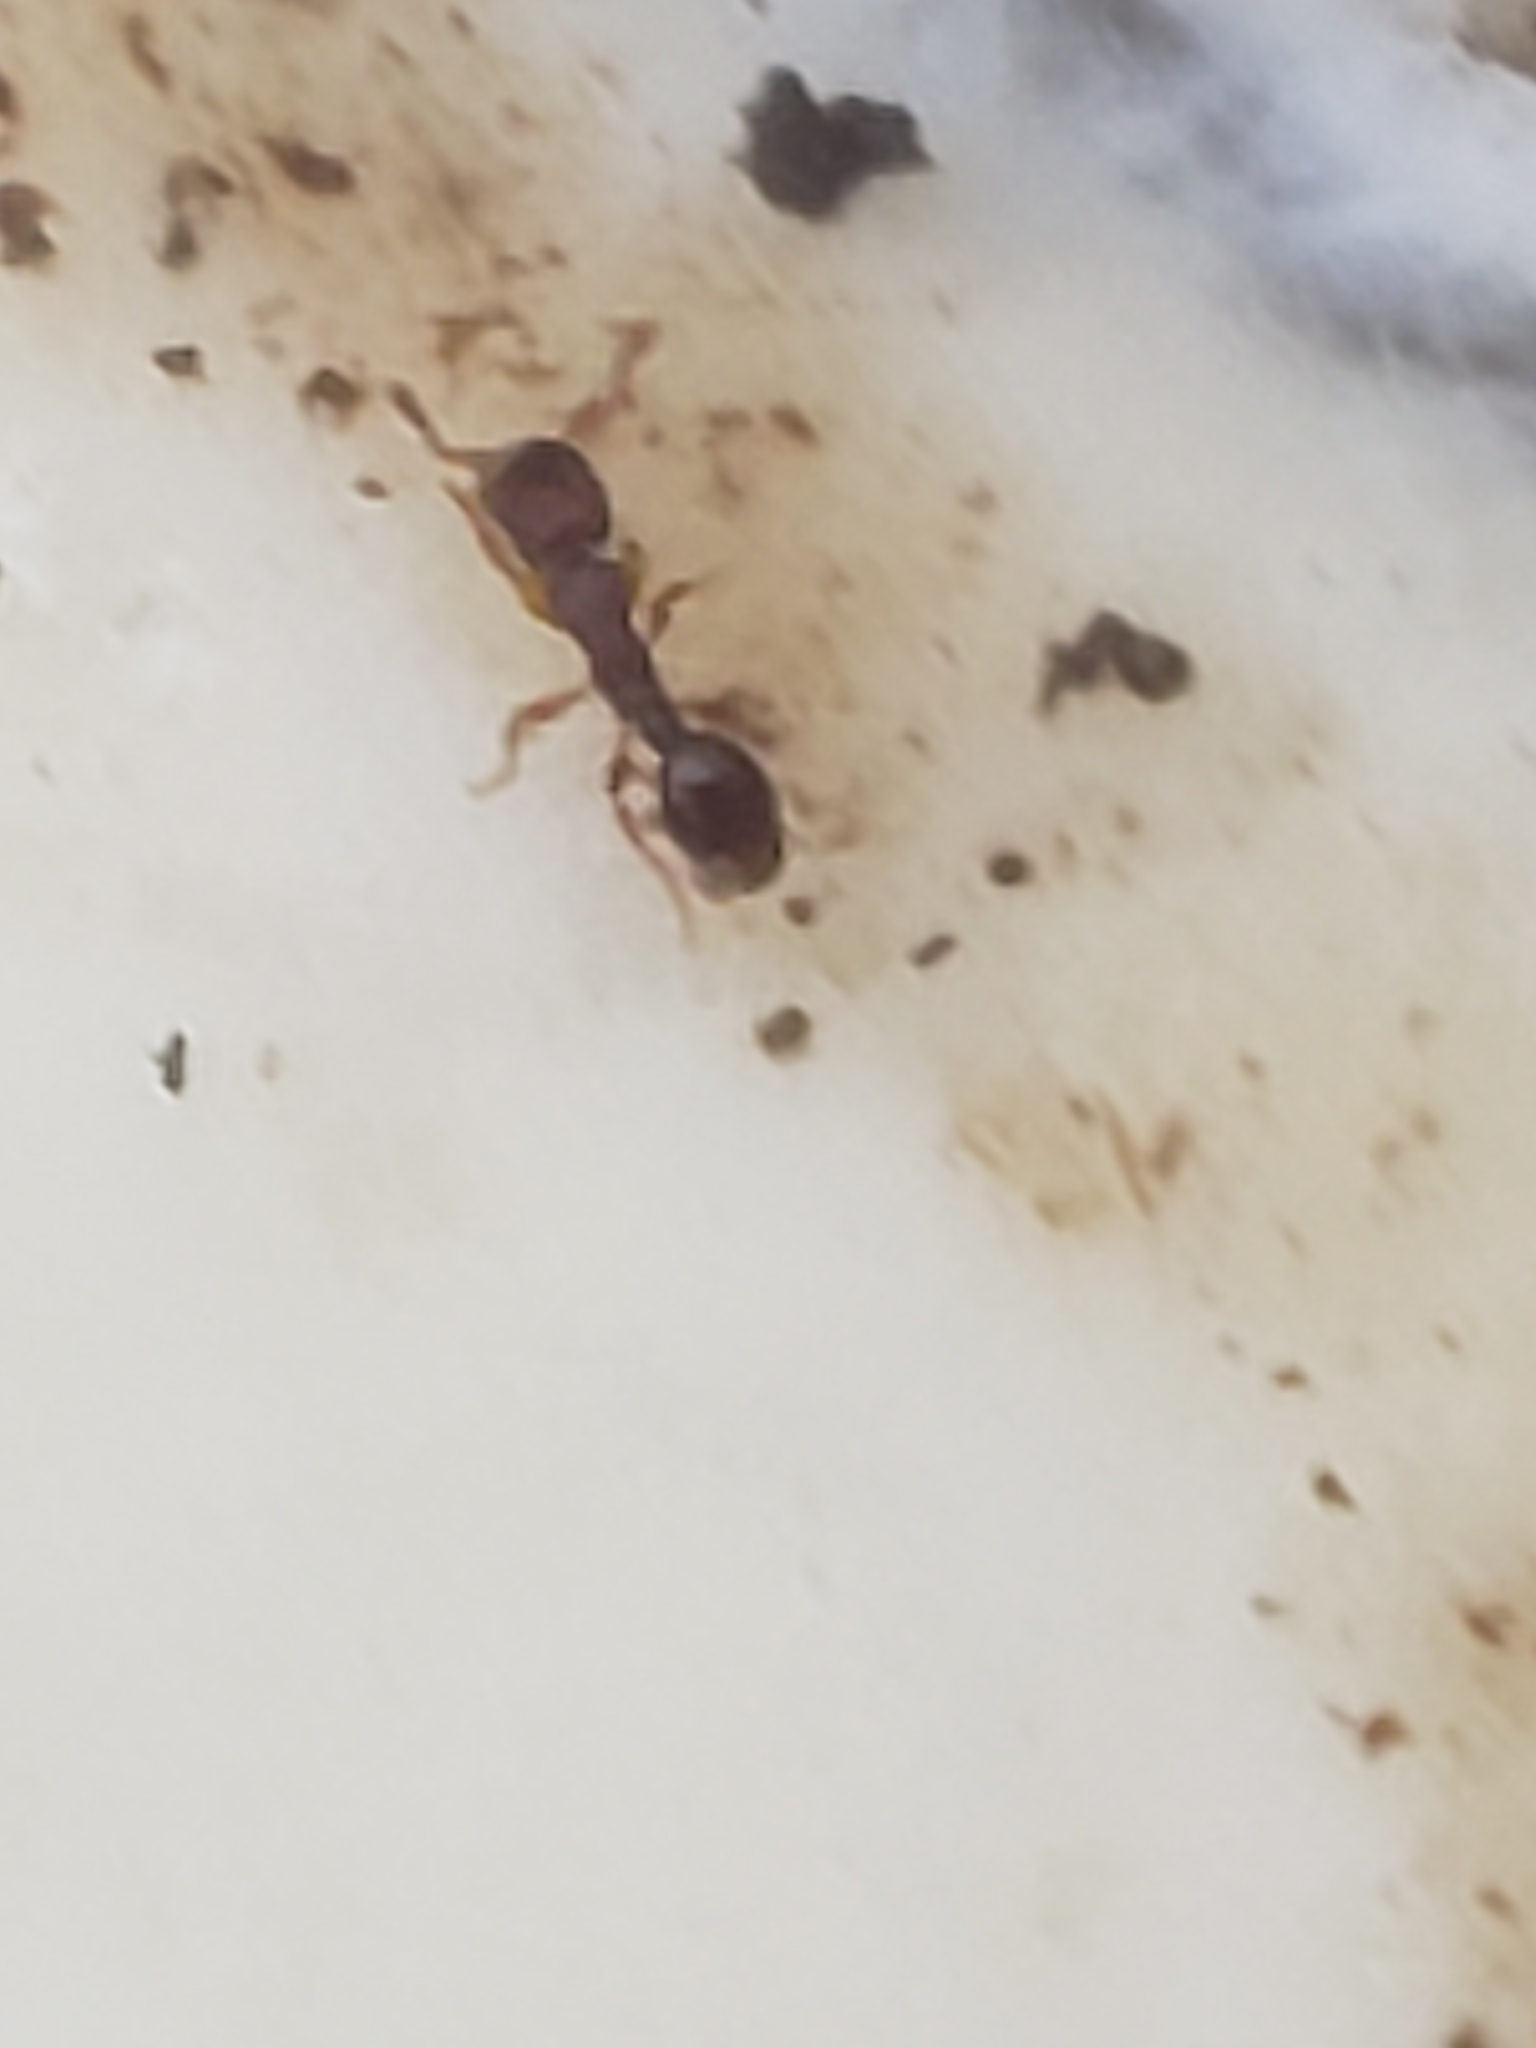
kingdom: Animalia
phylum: Arthropoda
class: Insecta
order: Hymenoptera
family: Formicidae
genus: Vollenhovia
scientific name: Vollenhovia emeryi
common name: Ant
